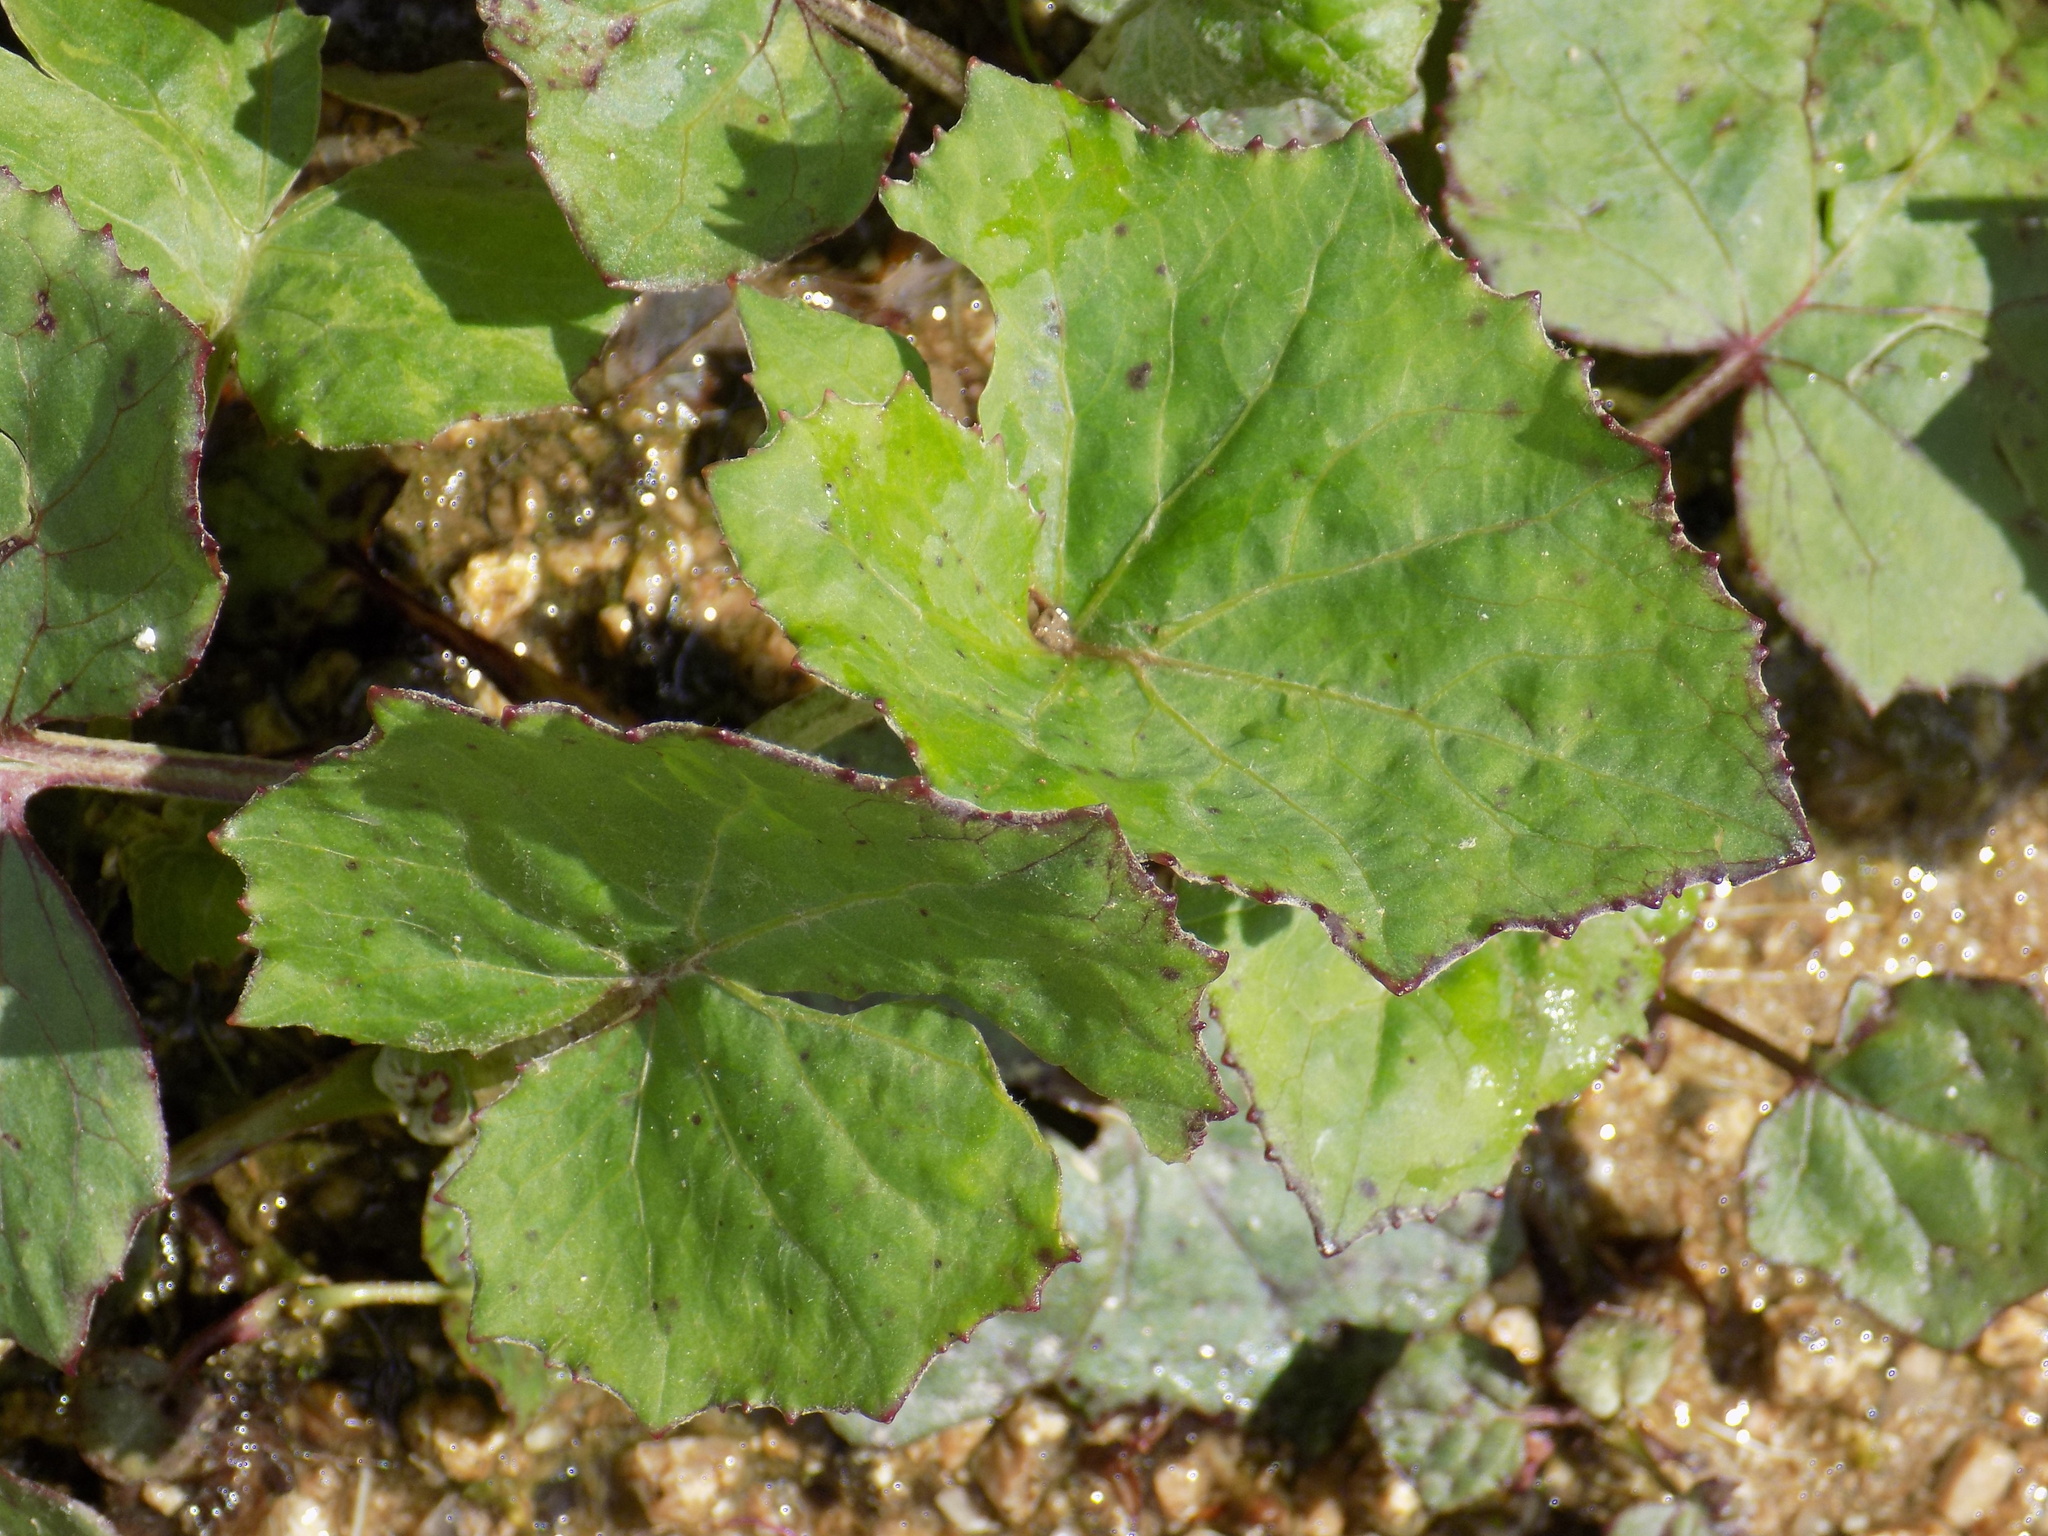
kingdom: Plantae
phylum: Tracheophyta
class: Magnoliopsida
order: Asterales
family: Asteraceae
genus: Tussilago
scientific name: Tussilago farfara
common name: Coltsfoot
